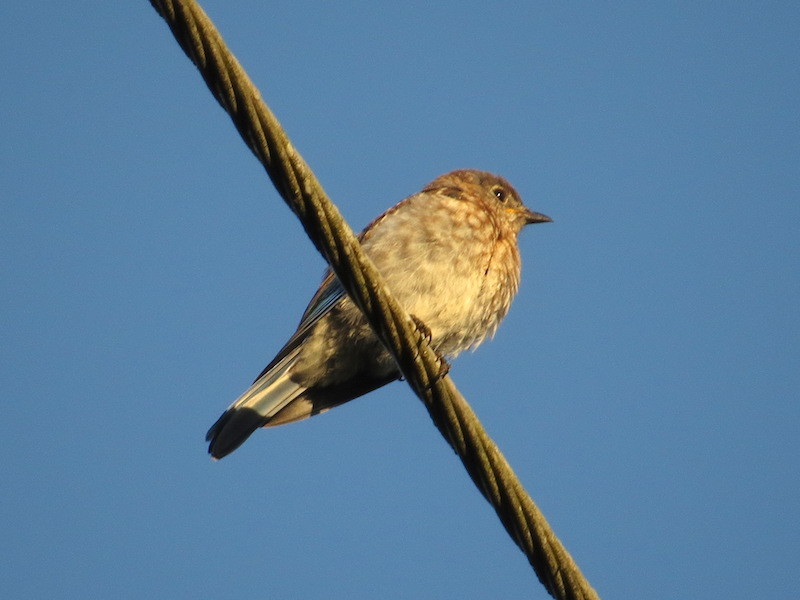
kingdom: Animalia
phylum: Chordata
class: Aves
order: Passeriformes
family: Turdidae
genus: Sialia
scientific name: Sialia sialis
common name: Eastern bluebird
